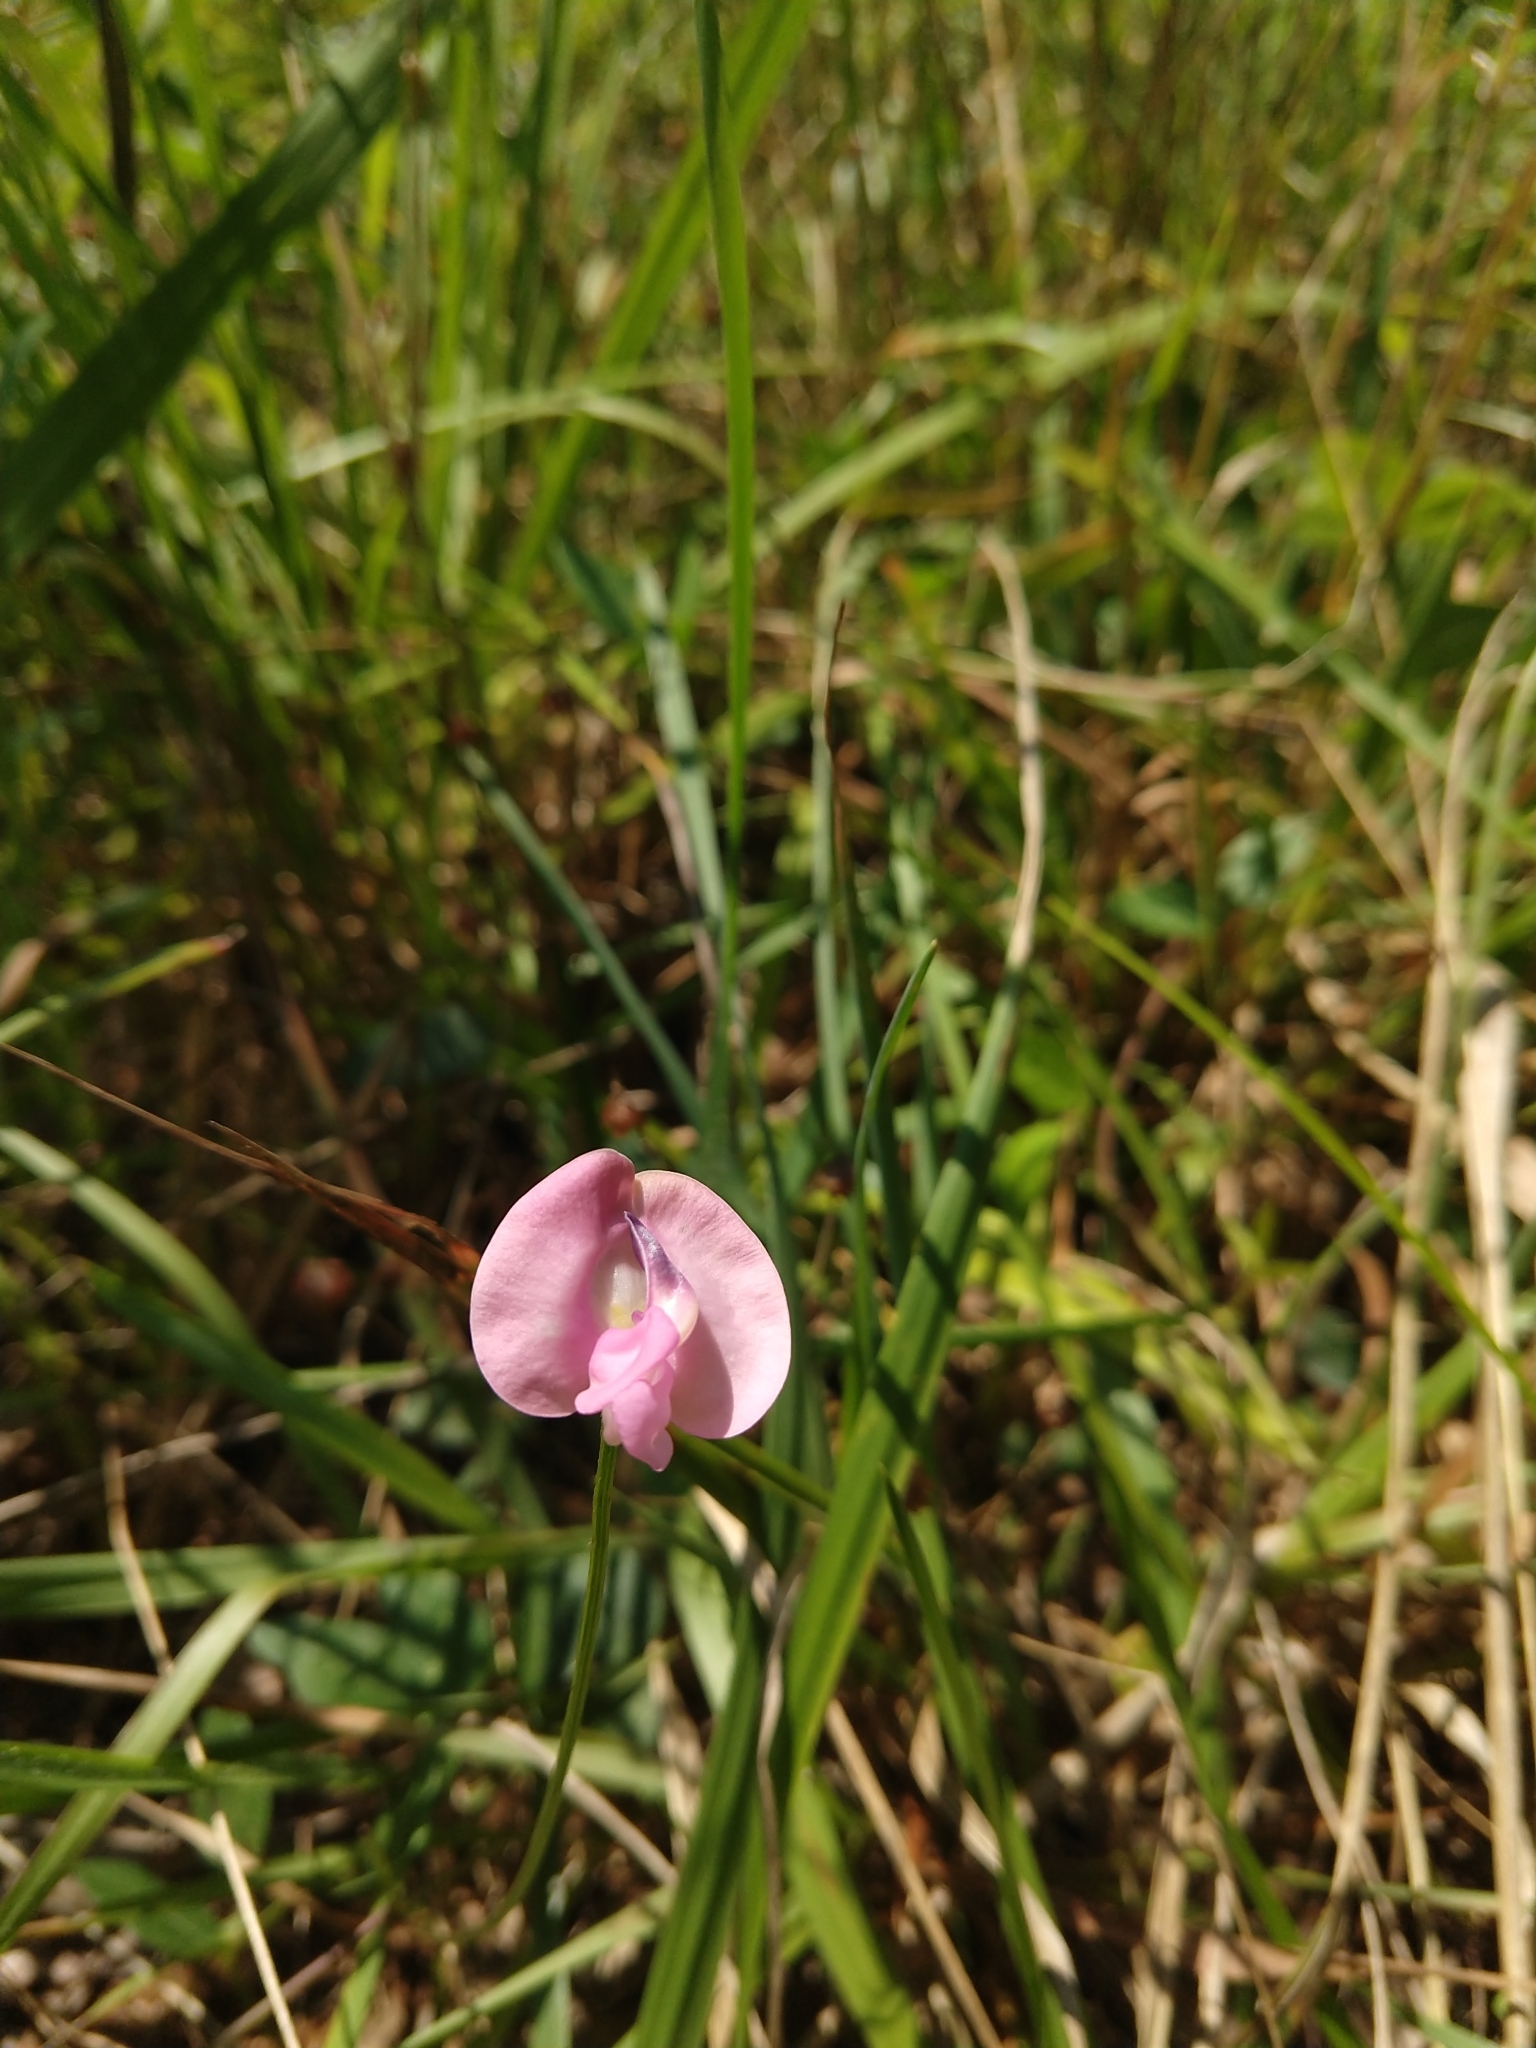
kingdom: Plantae
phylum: Tracheophyta
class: Magnoliopsida
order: Fabales
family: Fabaceae
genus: Strophostyles
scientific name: Strophostyles umbellata
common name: Perennial wild bean
